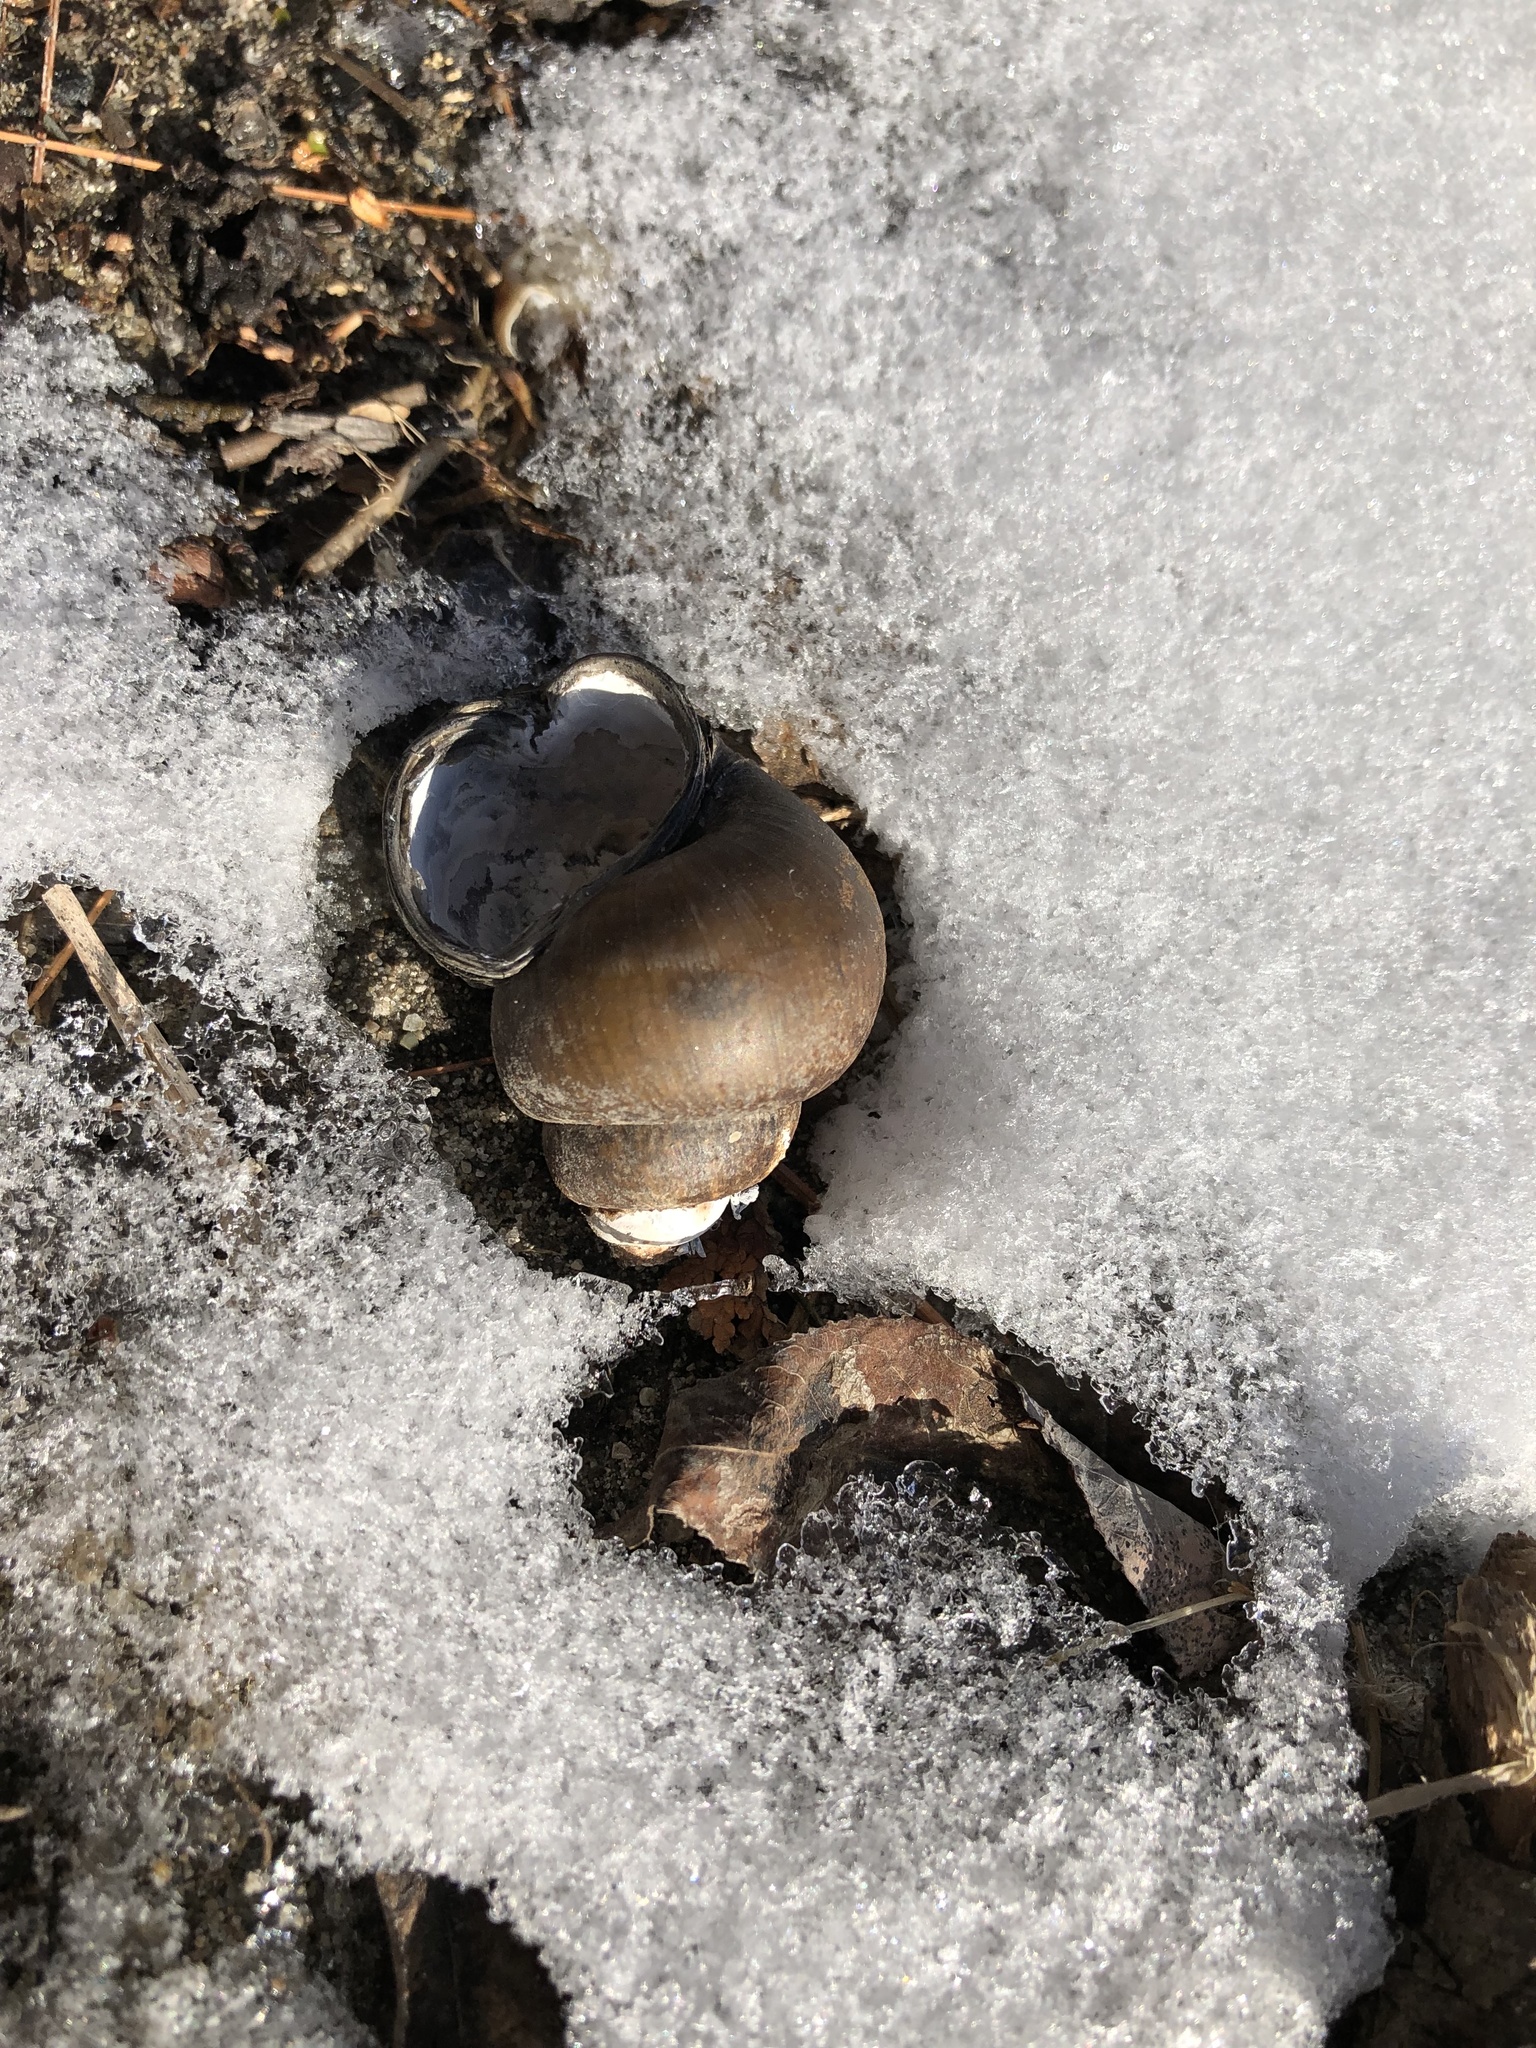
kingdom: Animalia
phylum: Mollusca
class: Gastropoda
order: Architaenioglossa
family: Viviparidae
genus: Cipangopaludina
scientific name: Cipangopaludina chinensis
